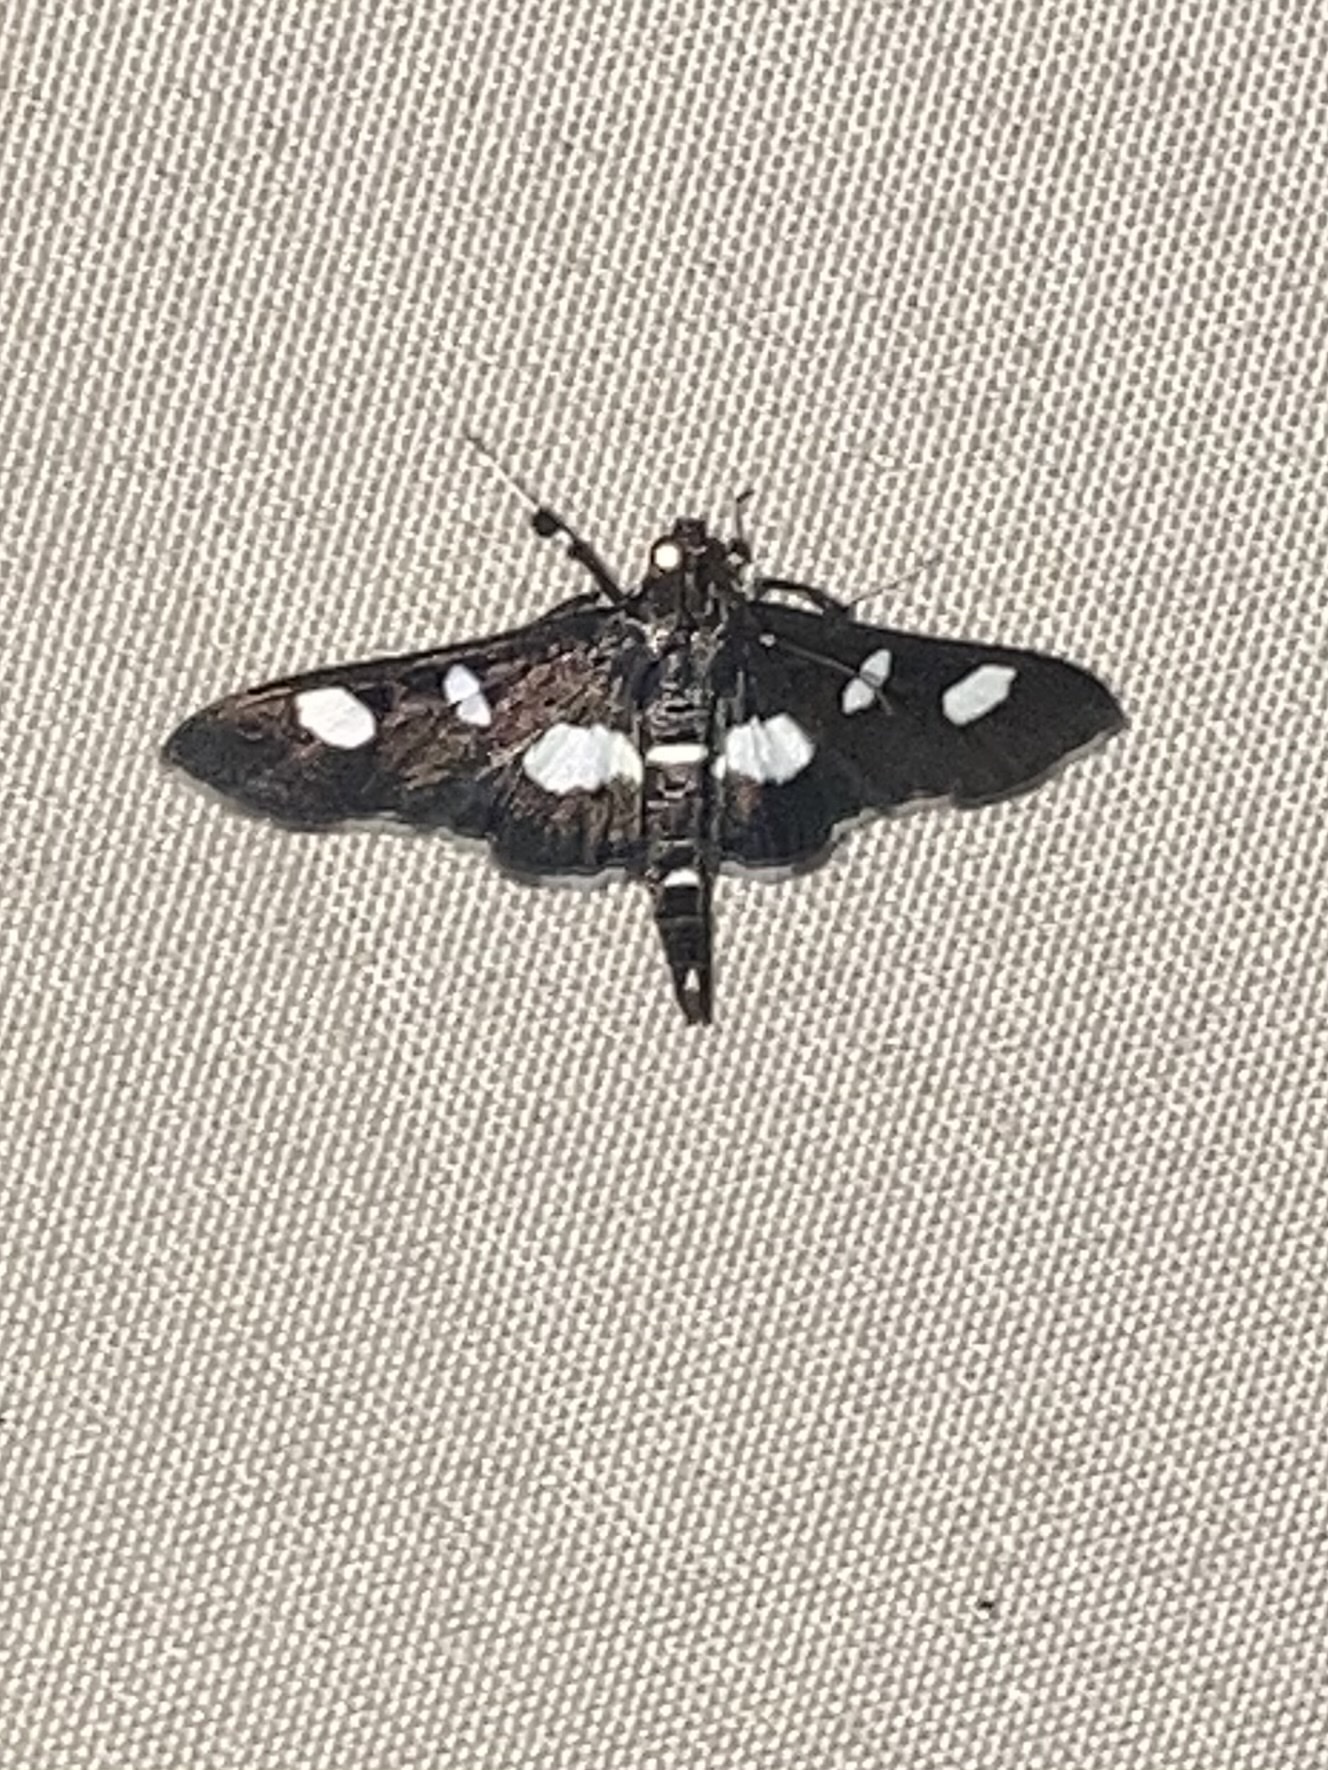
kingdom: Animalia
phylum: Arthropoda
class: Insecta
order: Lepidoptera
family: Crambidae
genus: Desmia
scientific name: Desmia
